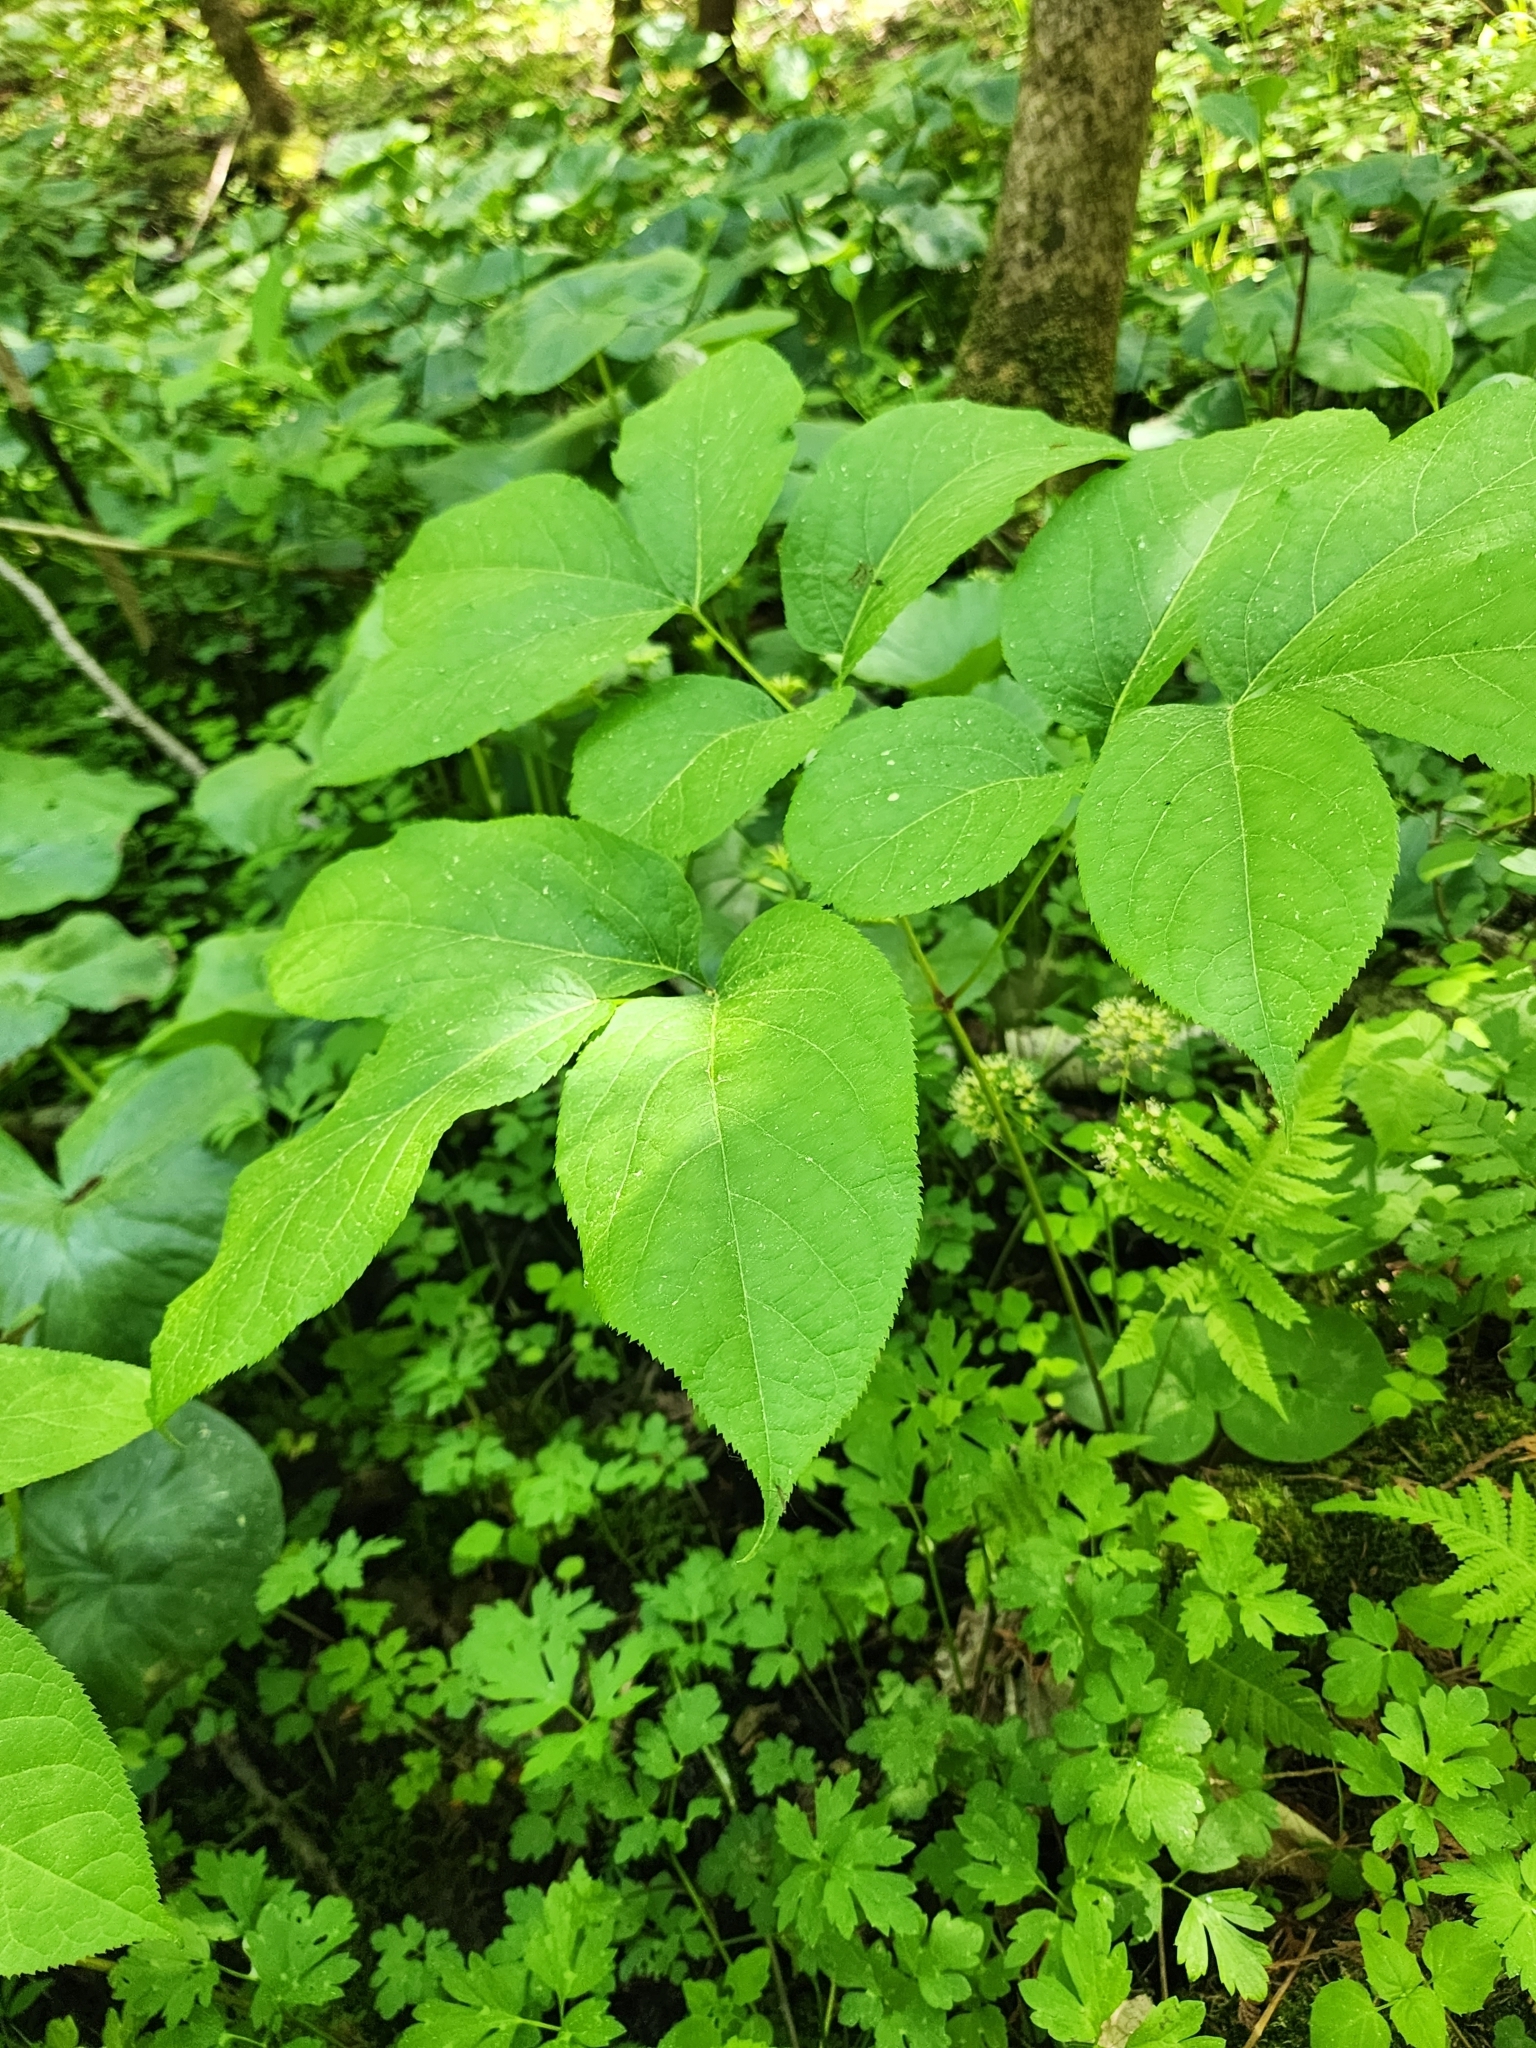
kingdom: Plantae
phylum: Tracheophyta
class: Magnoliopsida
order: Apiales
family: Araliaceae
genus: Aralia
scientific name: Aralia nudicaulis
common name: Wild sarsaparilla
